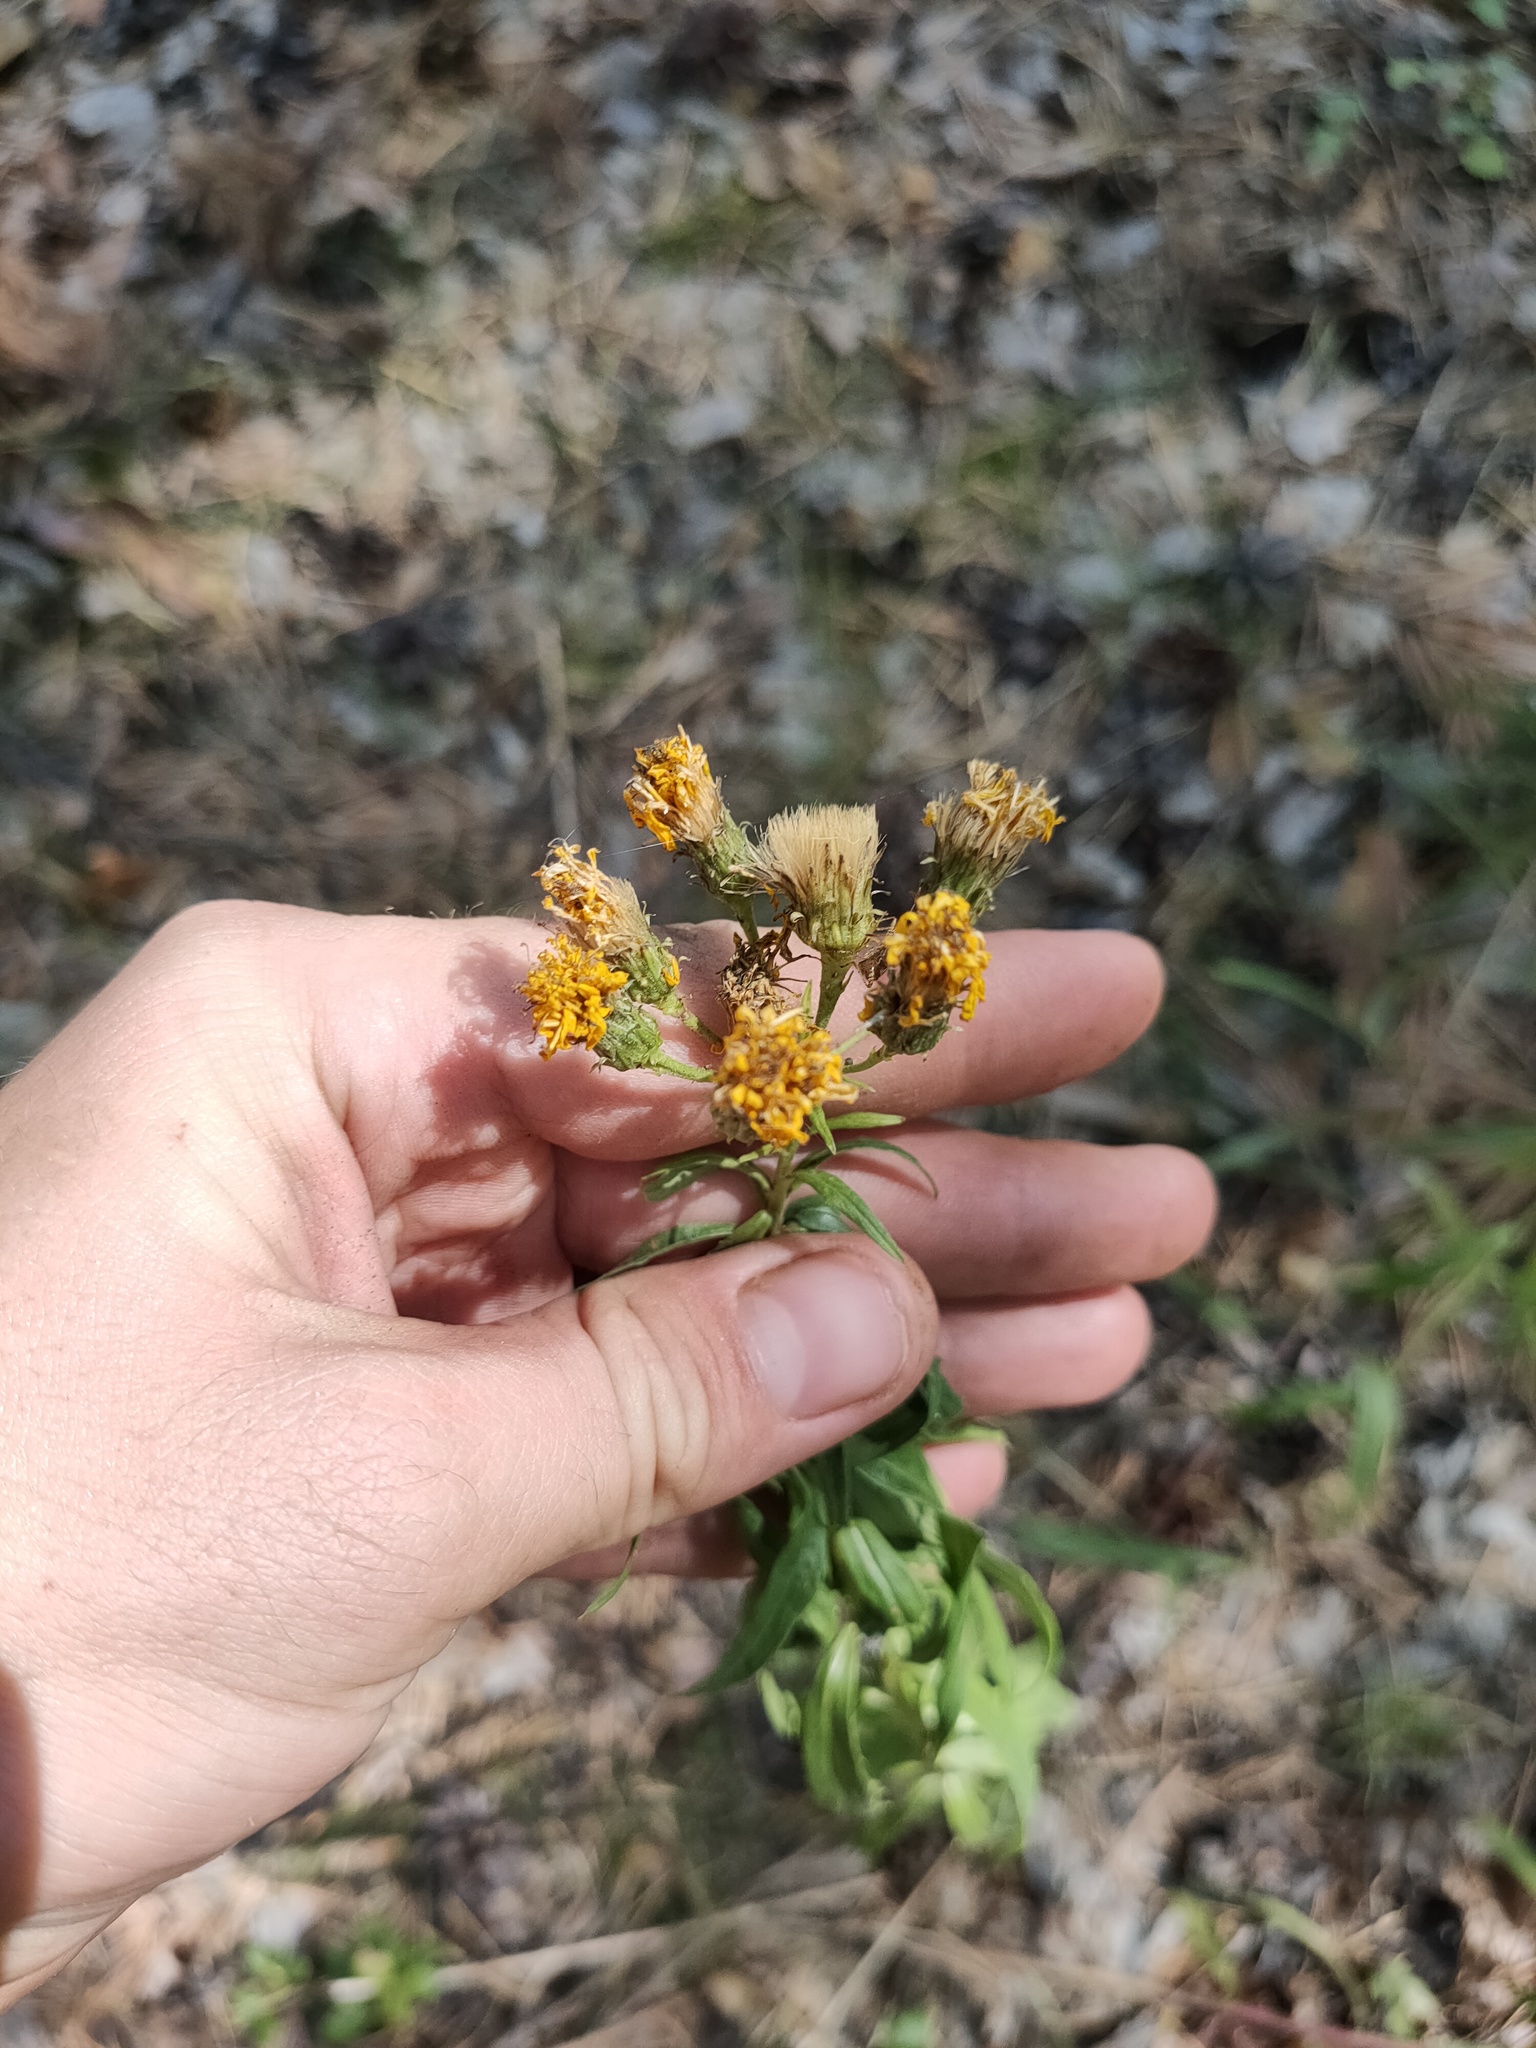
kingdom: Plantae
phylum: Tracheophyta
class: Magnoliopsida
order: Asterales
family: Asteraceae
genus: Hieracium
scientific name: Hieracium umbellatum
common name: Northern hawkweed
